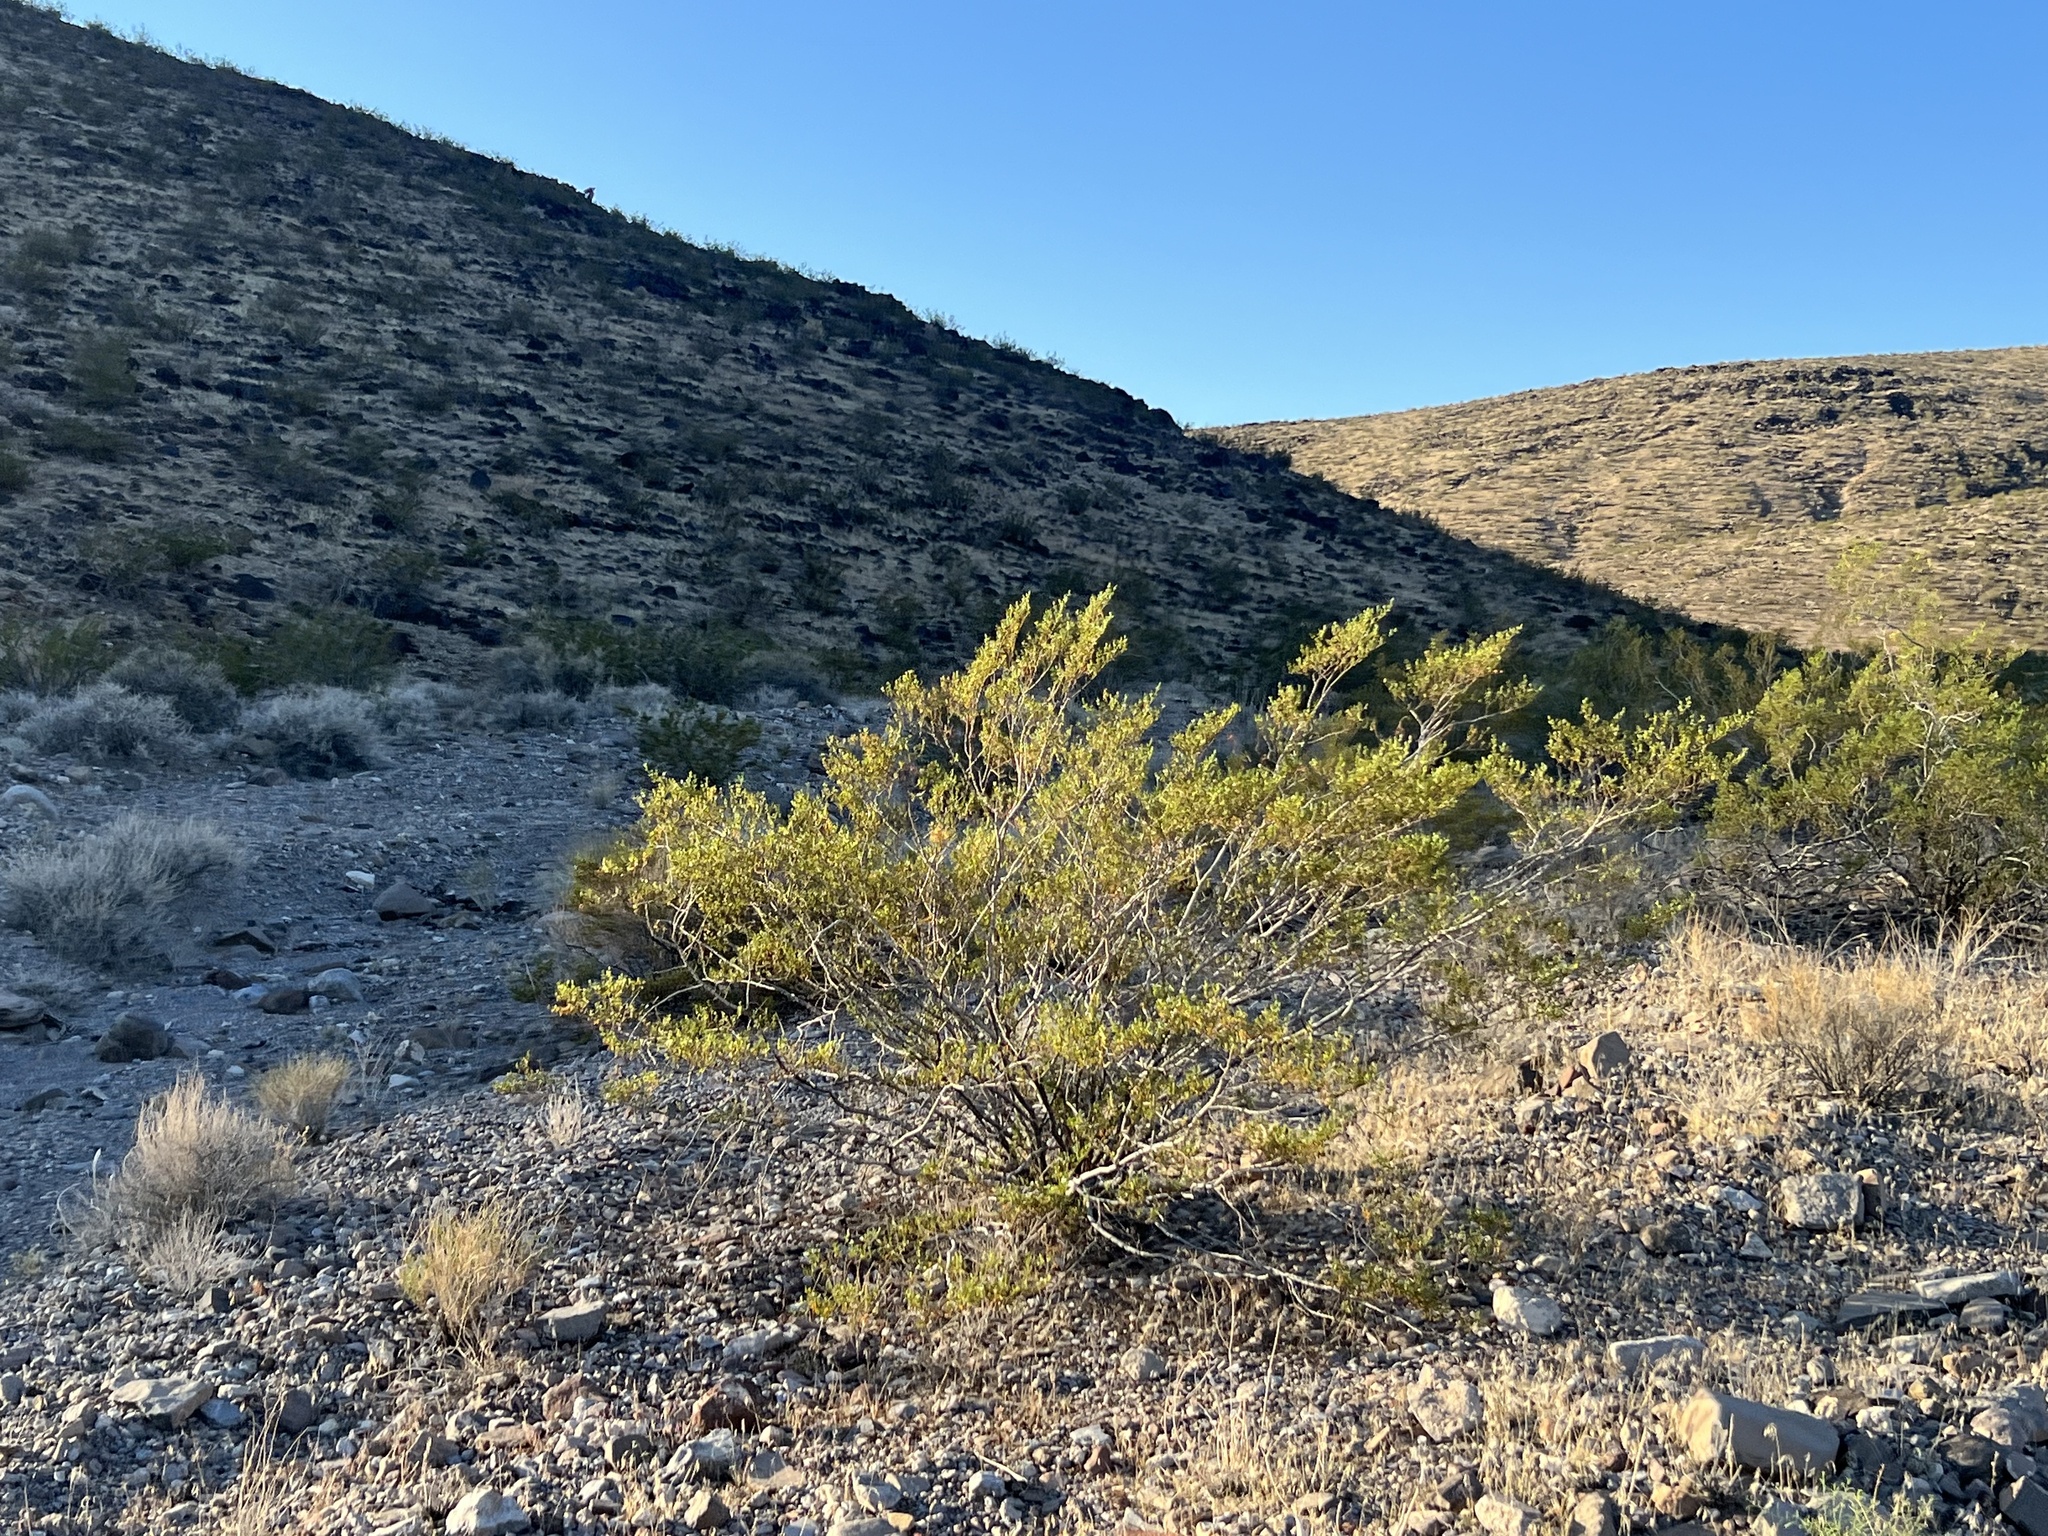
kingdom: Plantae
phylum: Tracheophyta
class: Magnoliopsida
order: Zygophyllales
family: Zygophyllaceae
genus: Larrea
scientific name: Larrea tridentata
